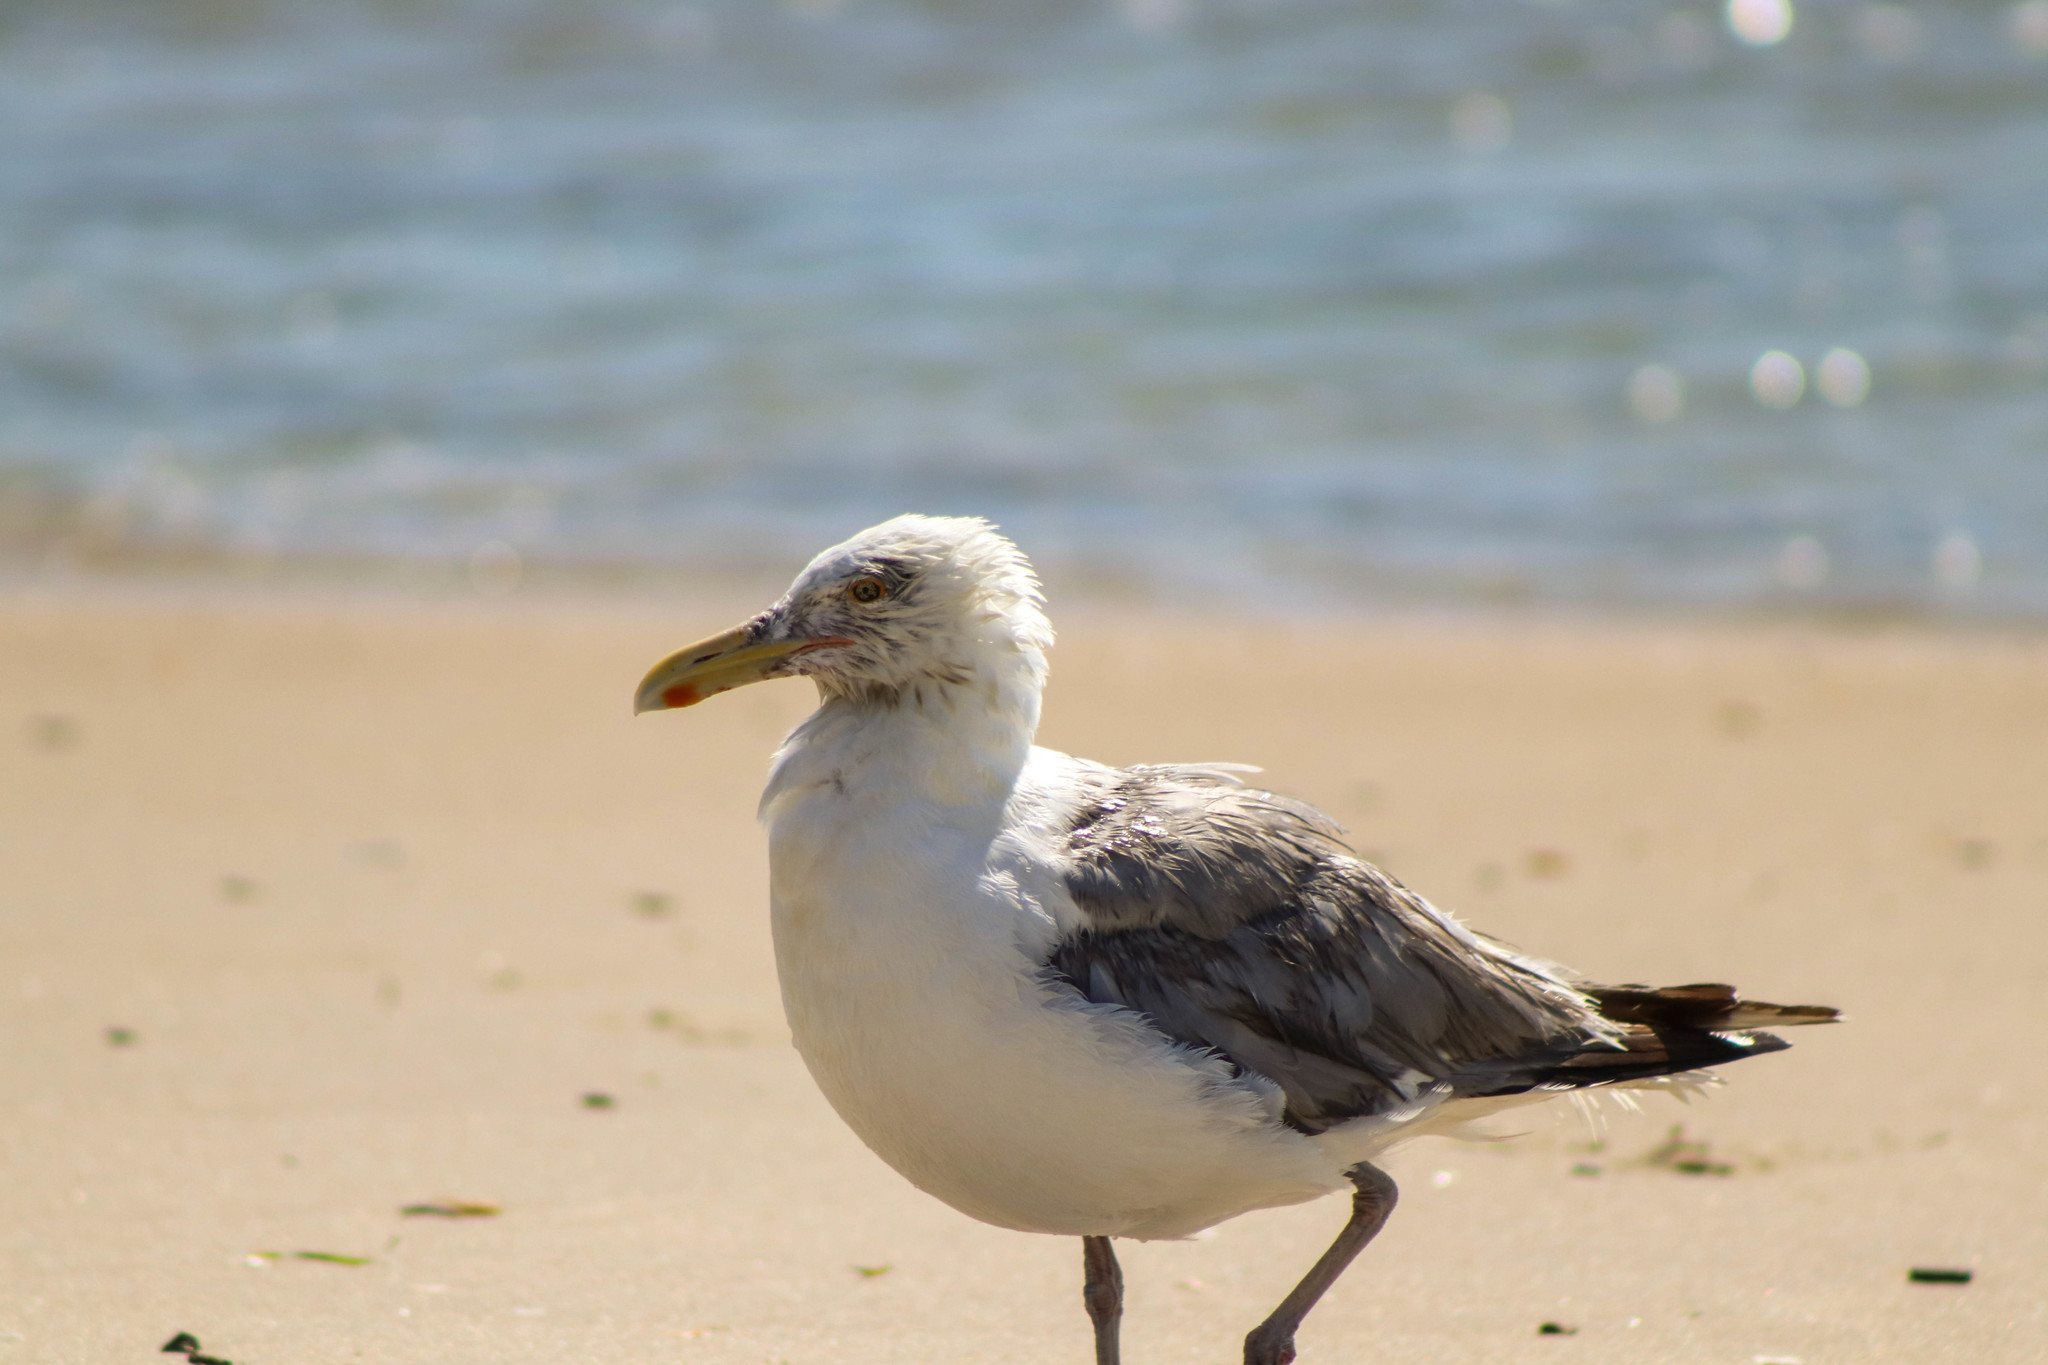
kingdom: Animalia
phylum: Chordata
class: Aves
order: Charadriiformes
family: Laridae
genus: Larus
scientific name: Larus argentatus
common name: Herring gull
